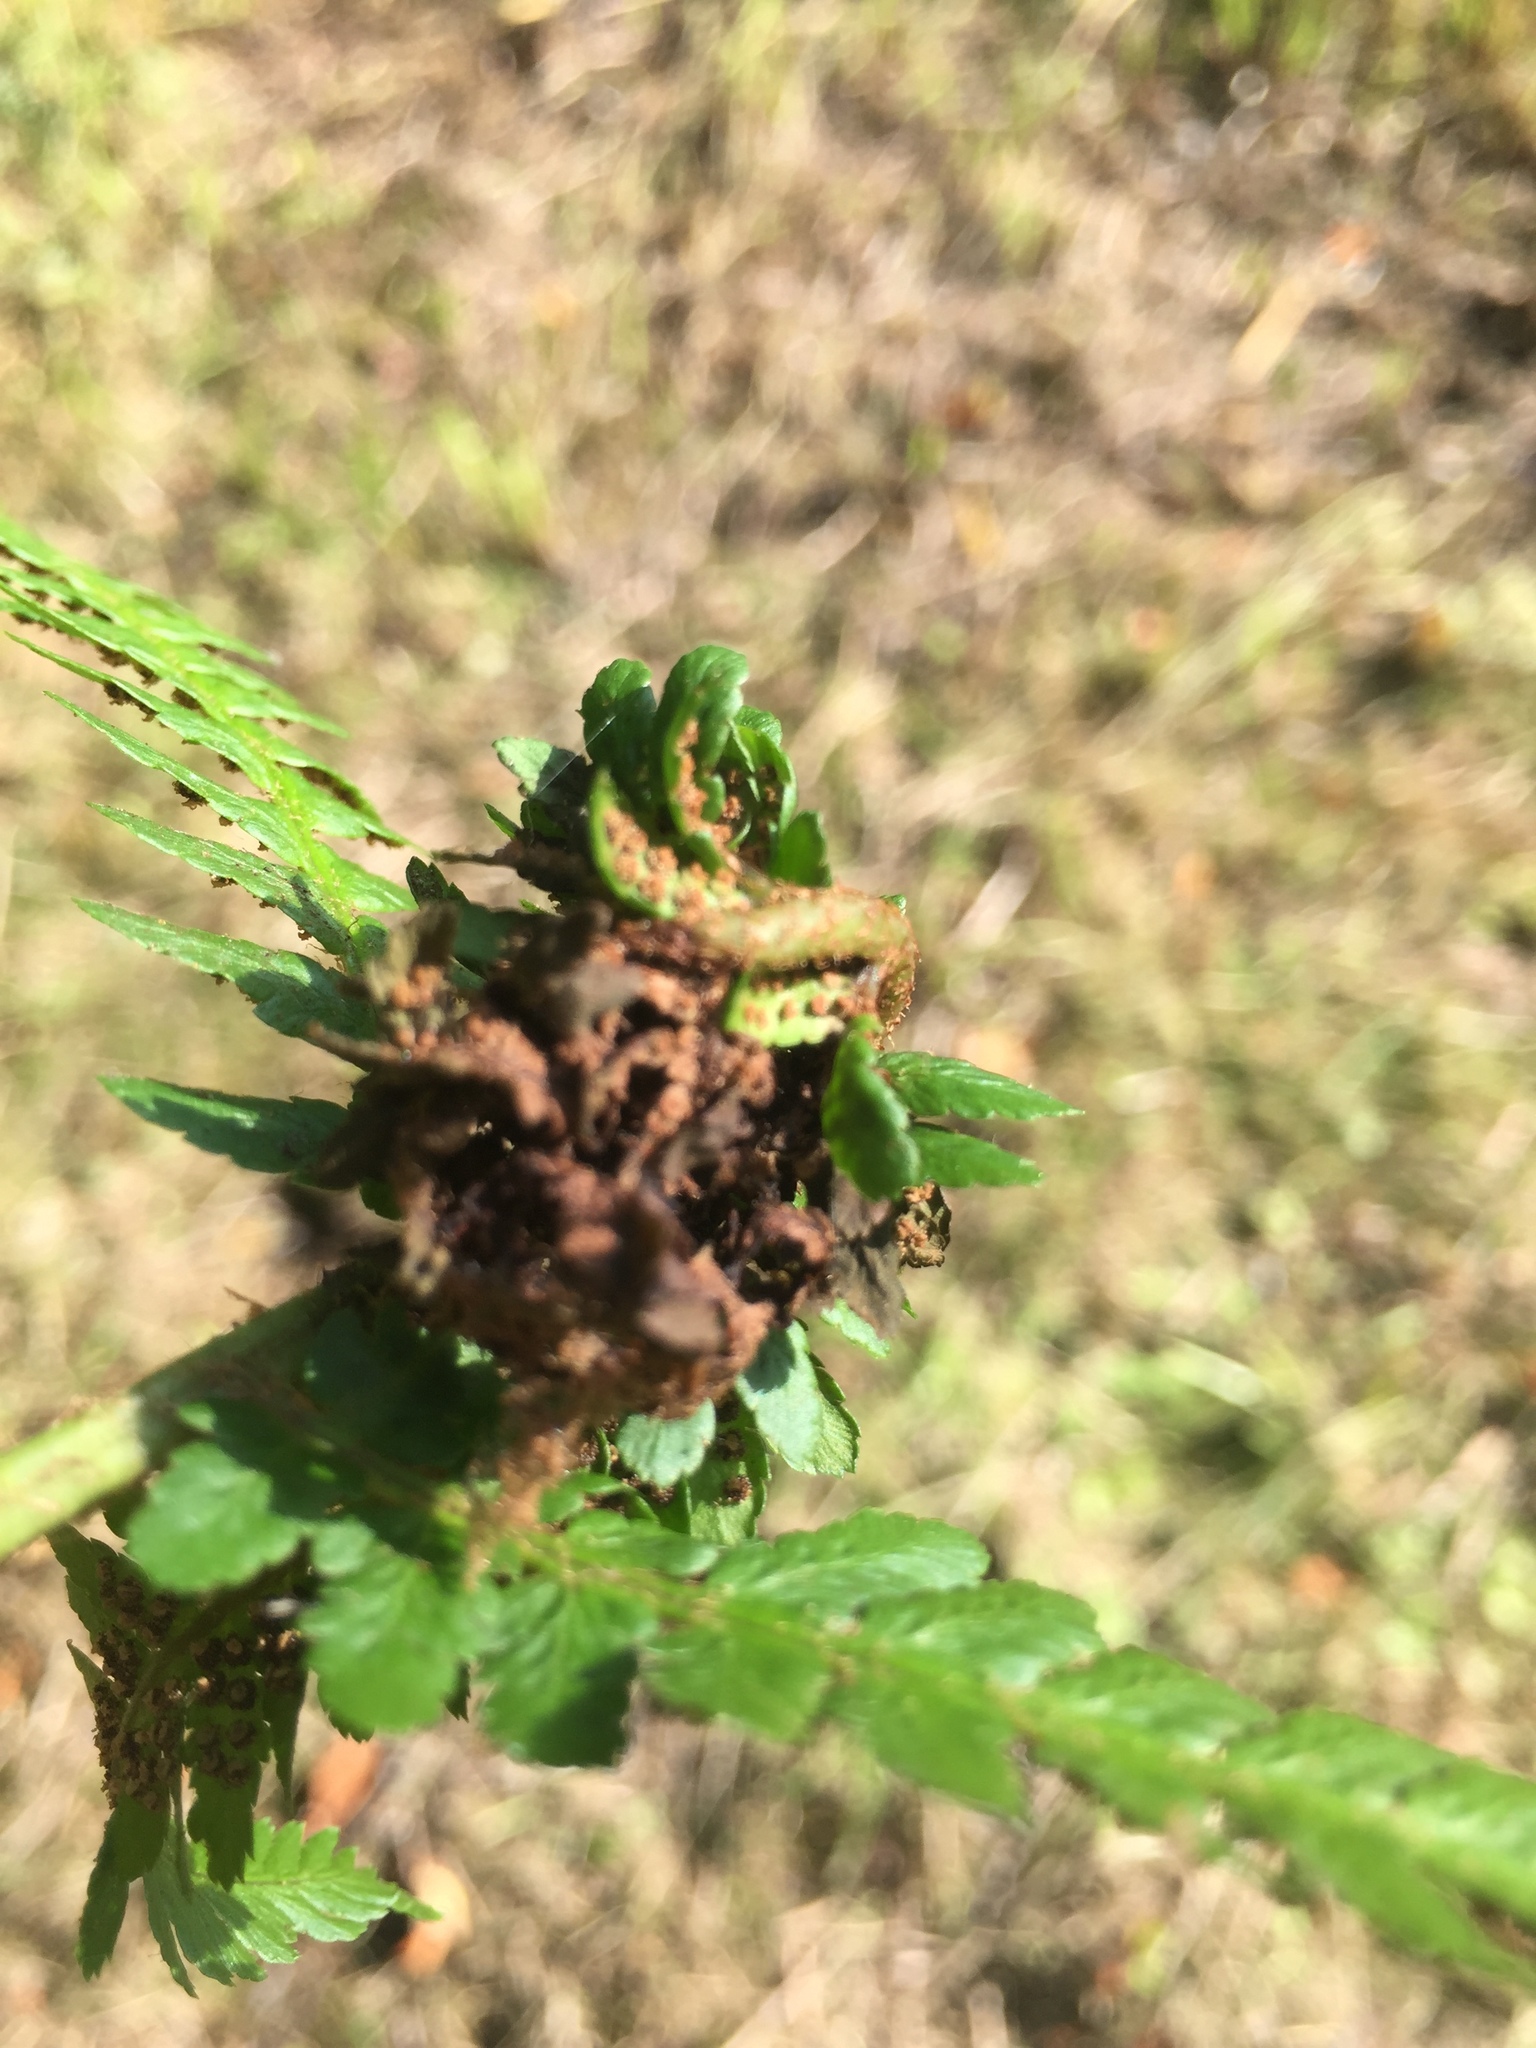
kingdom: Animalia
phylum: Arthropoda
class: Insecta
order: Diptera
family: Anthomyiidae
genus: Chirosia
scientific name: Chirosia betuleti
